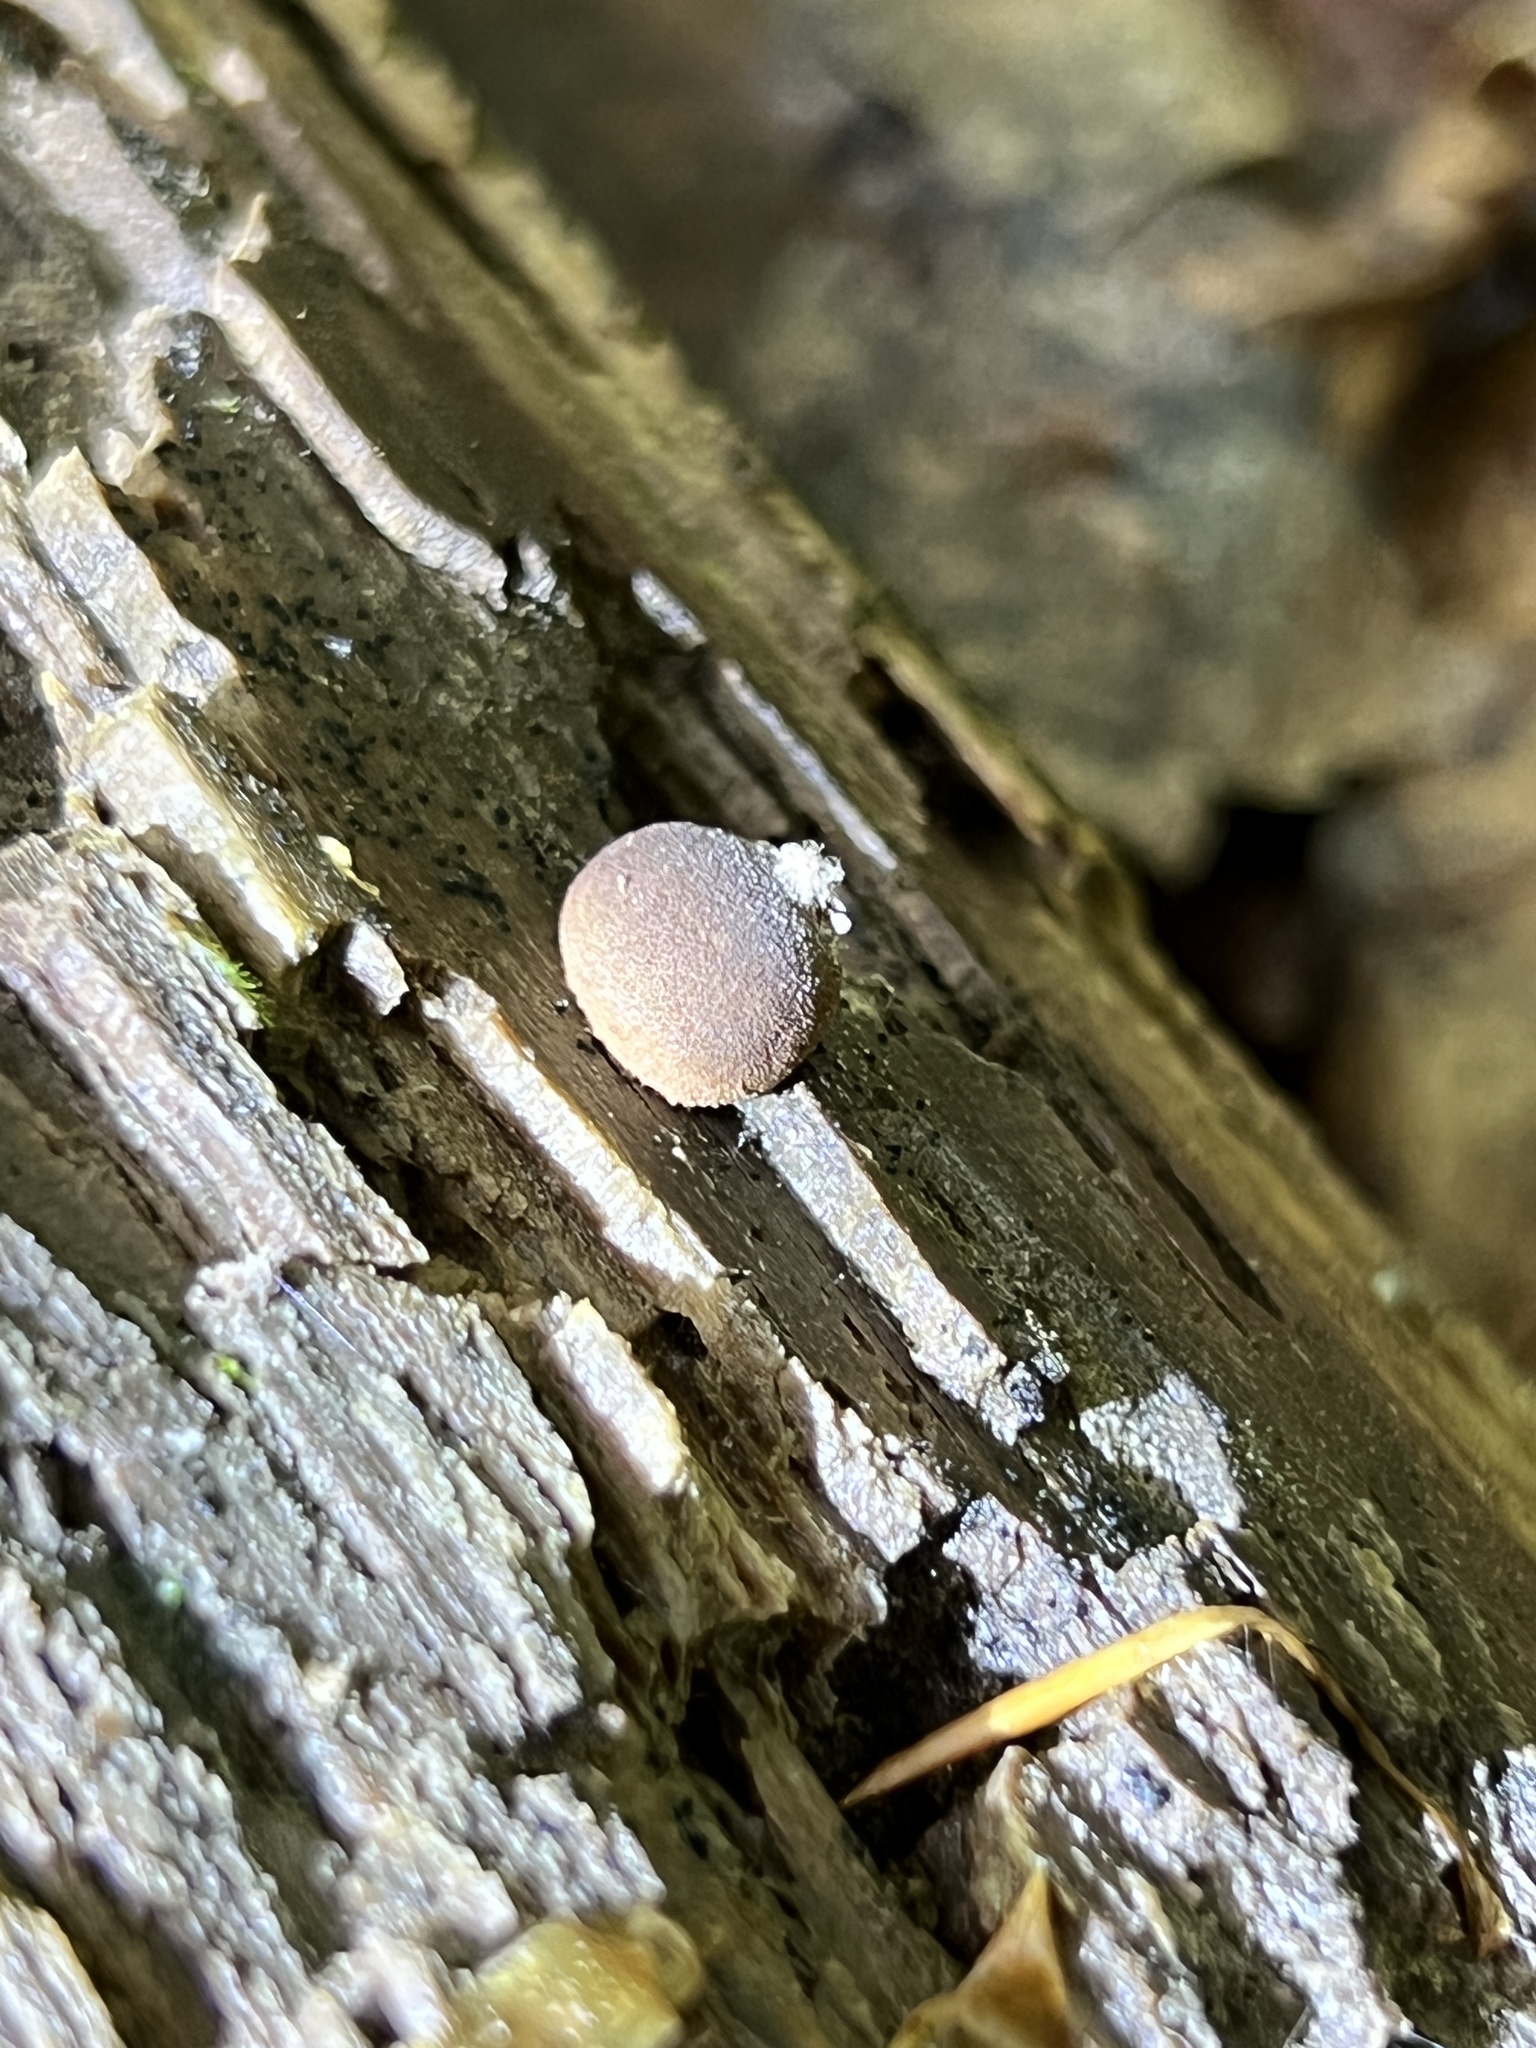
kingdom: Protozoa
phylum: Mycetozoa
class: Myxomycetes
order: Cribrariales
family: Tubiferaceae
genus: Lycogala
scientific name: Lycogala epidendrum
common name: Wolf's milk
